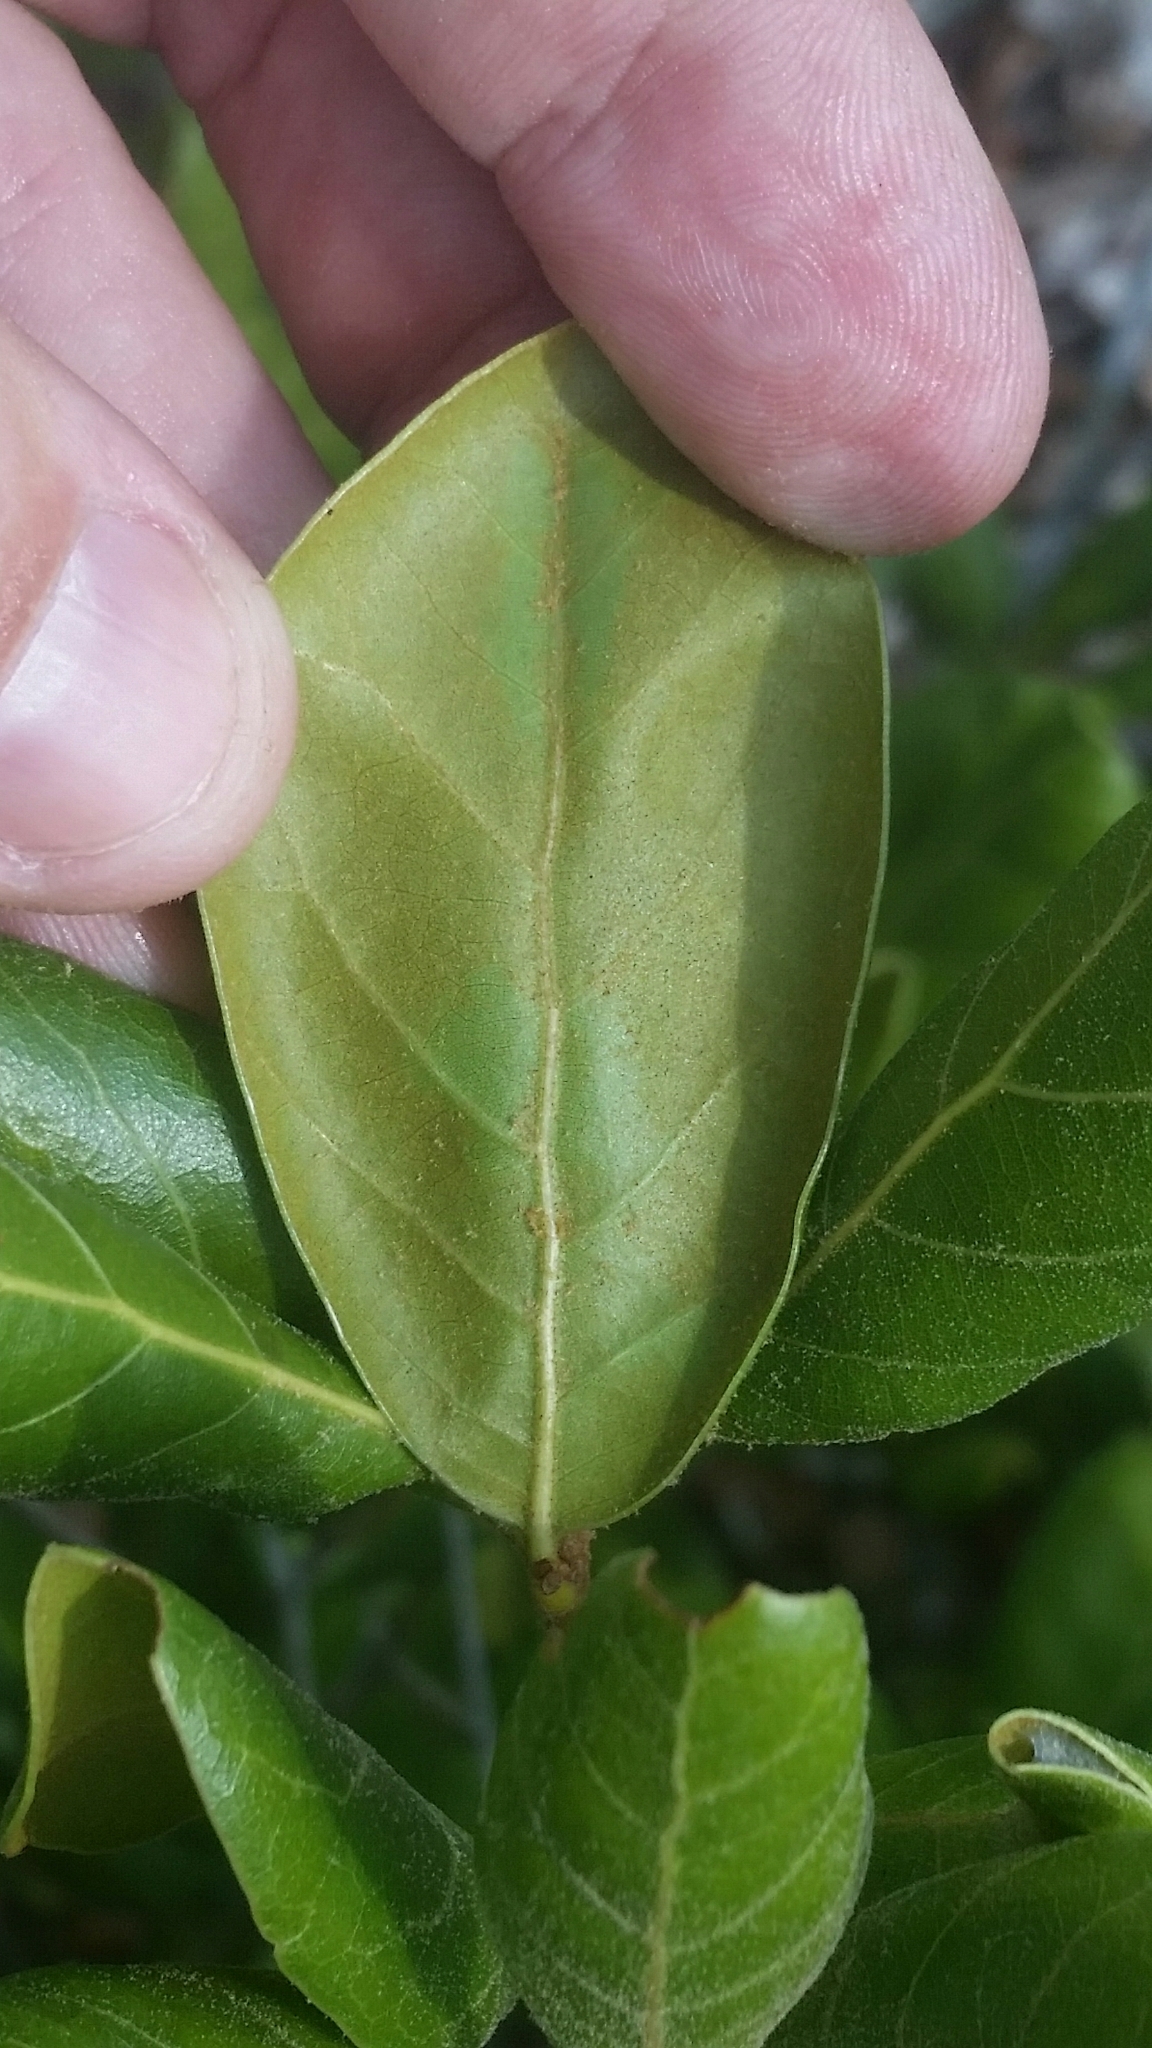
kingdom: Plantae
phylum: Tracheophyta
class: Magnoliopsida
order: Fagales
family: Fagaceae
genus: Quercus
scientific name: Quercus inopina
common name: Sandhill oak
